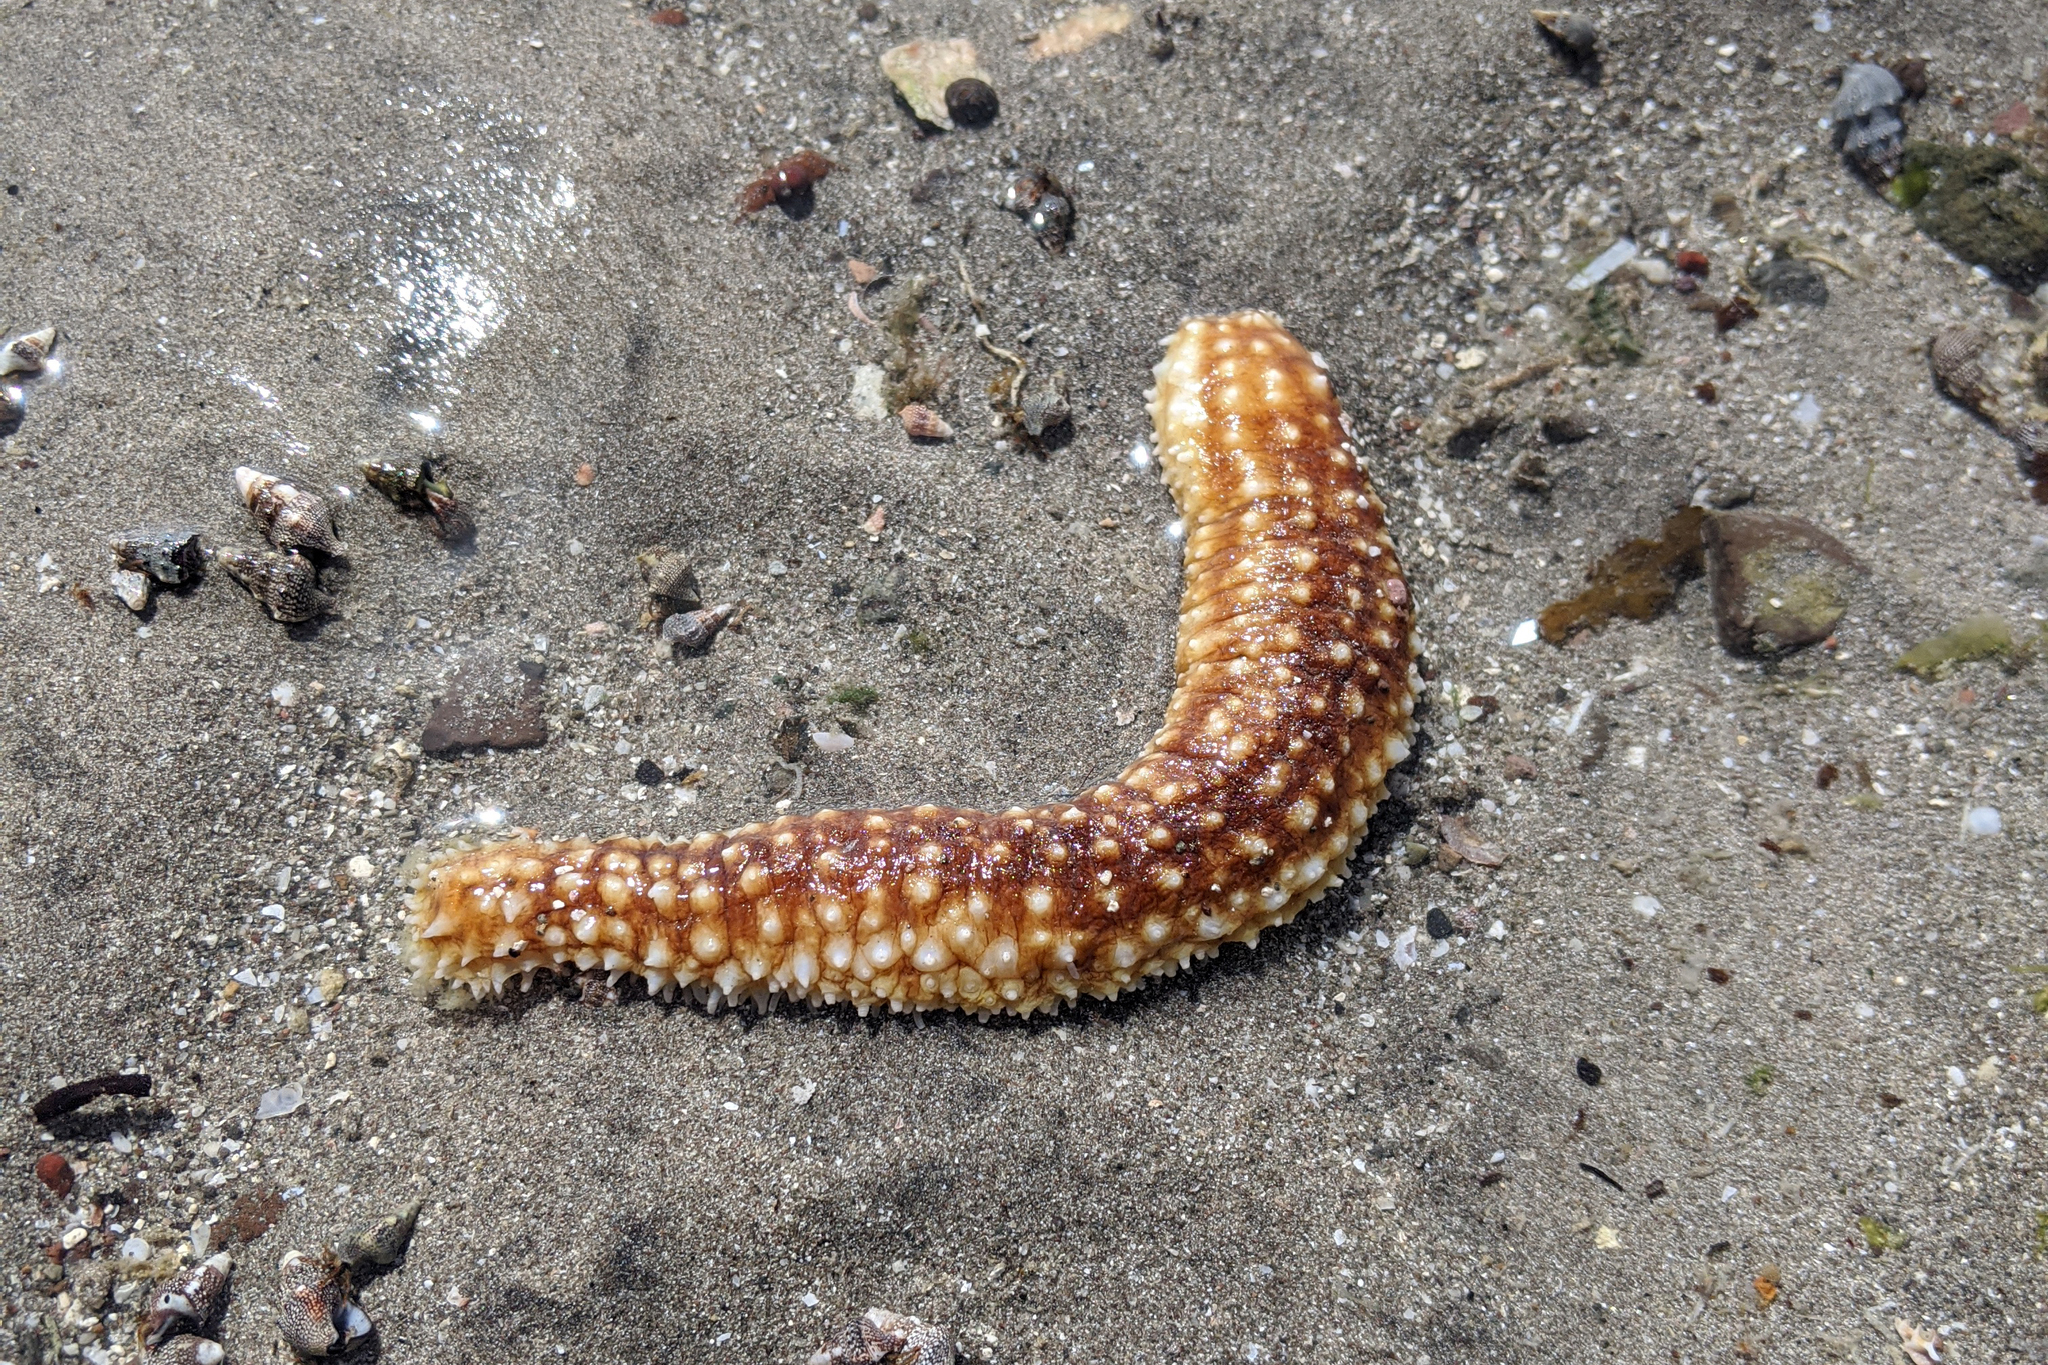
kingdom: Animalia
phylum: Echinodermata
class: Holothuroidea
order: Holothuriida
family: Holothuriidae
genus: Holothuria
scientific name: Holothuria hilla
